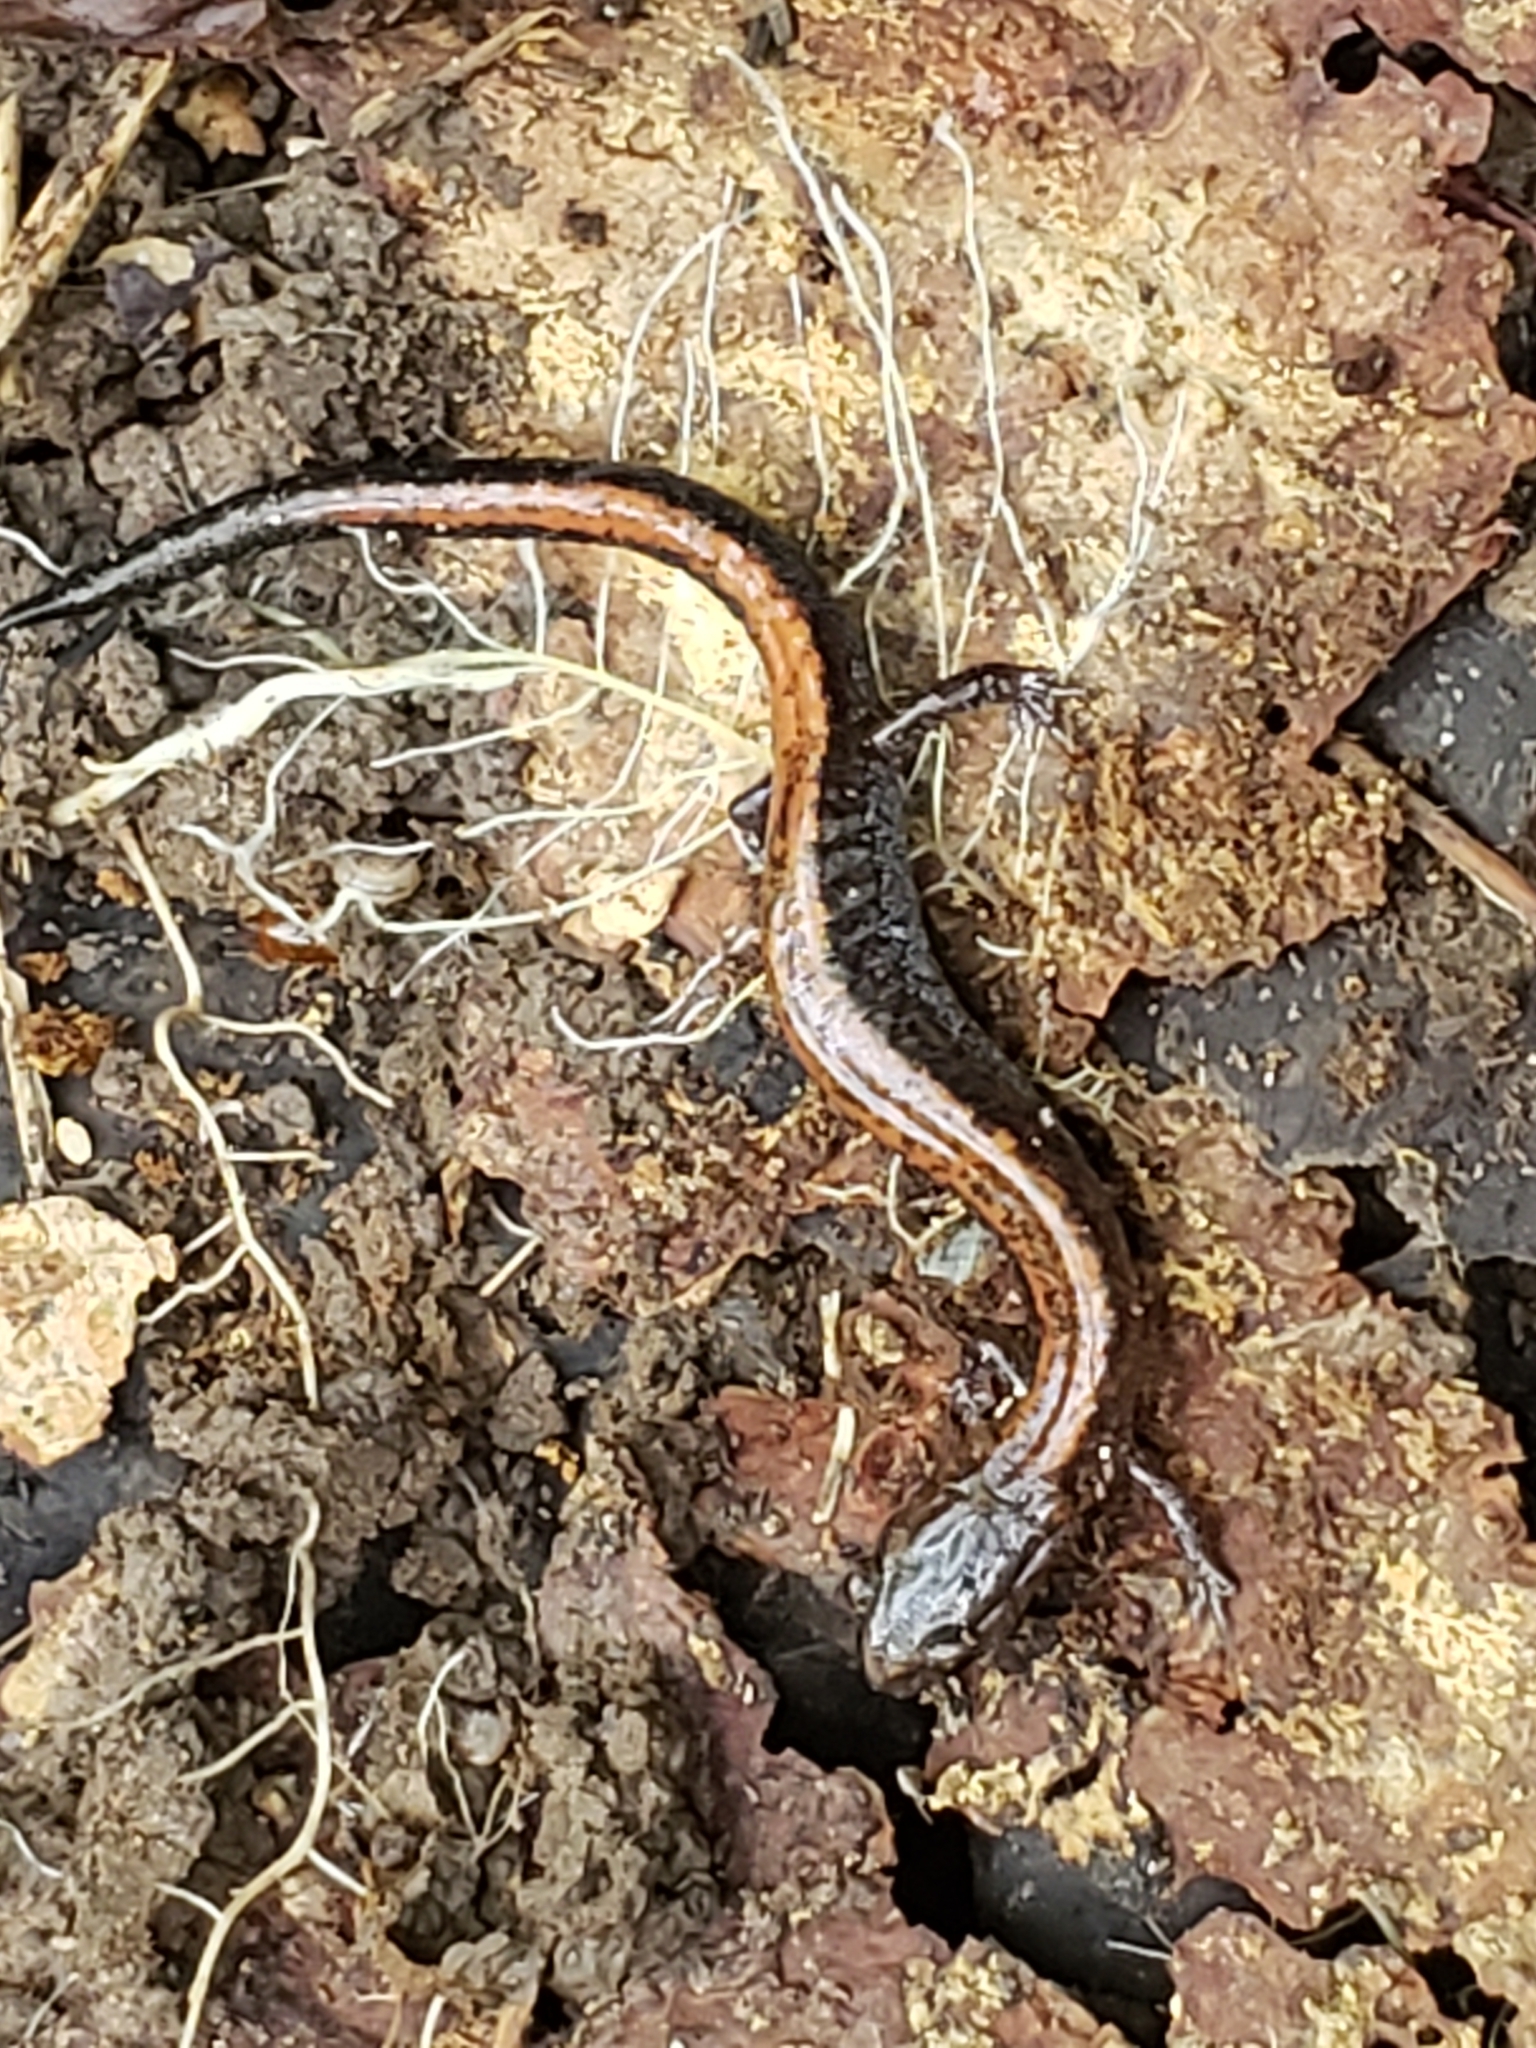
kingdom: Animalia
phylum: Chordata
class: Amphibia
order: Caudata
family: Plethodontidae
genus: Plethodon
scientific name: Plethodon cinereus
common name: Redback salamander
